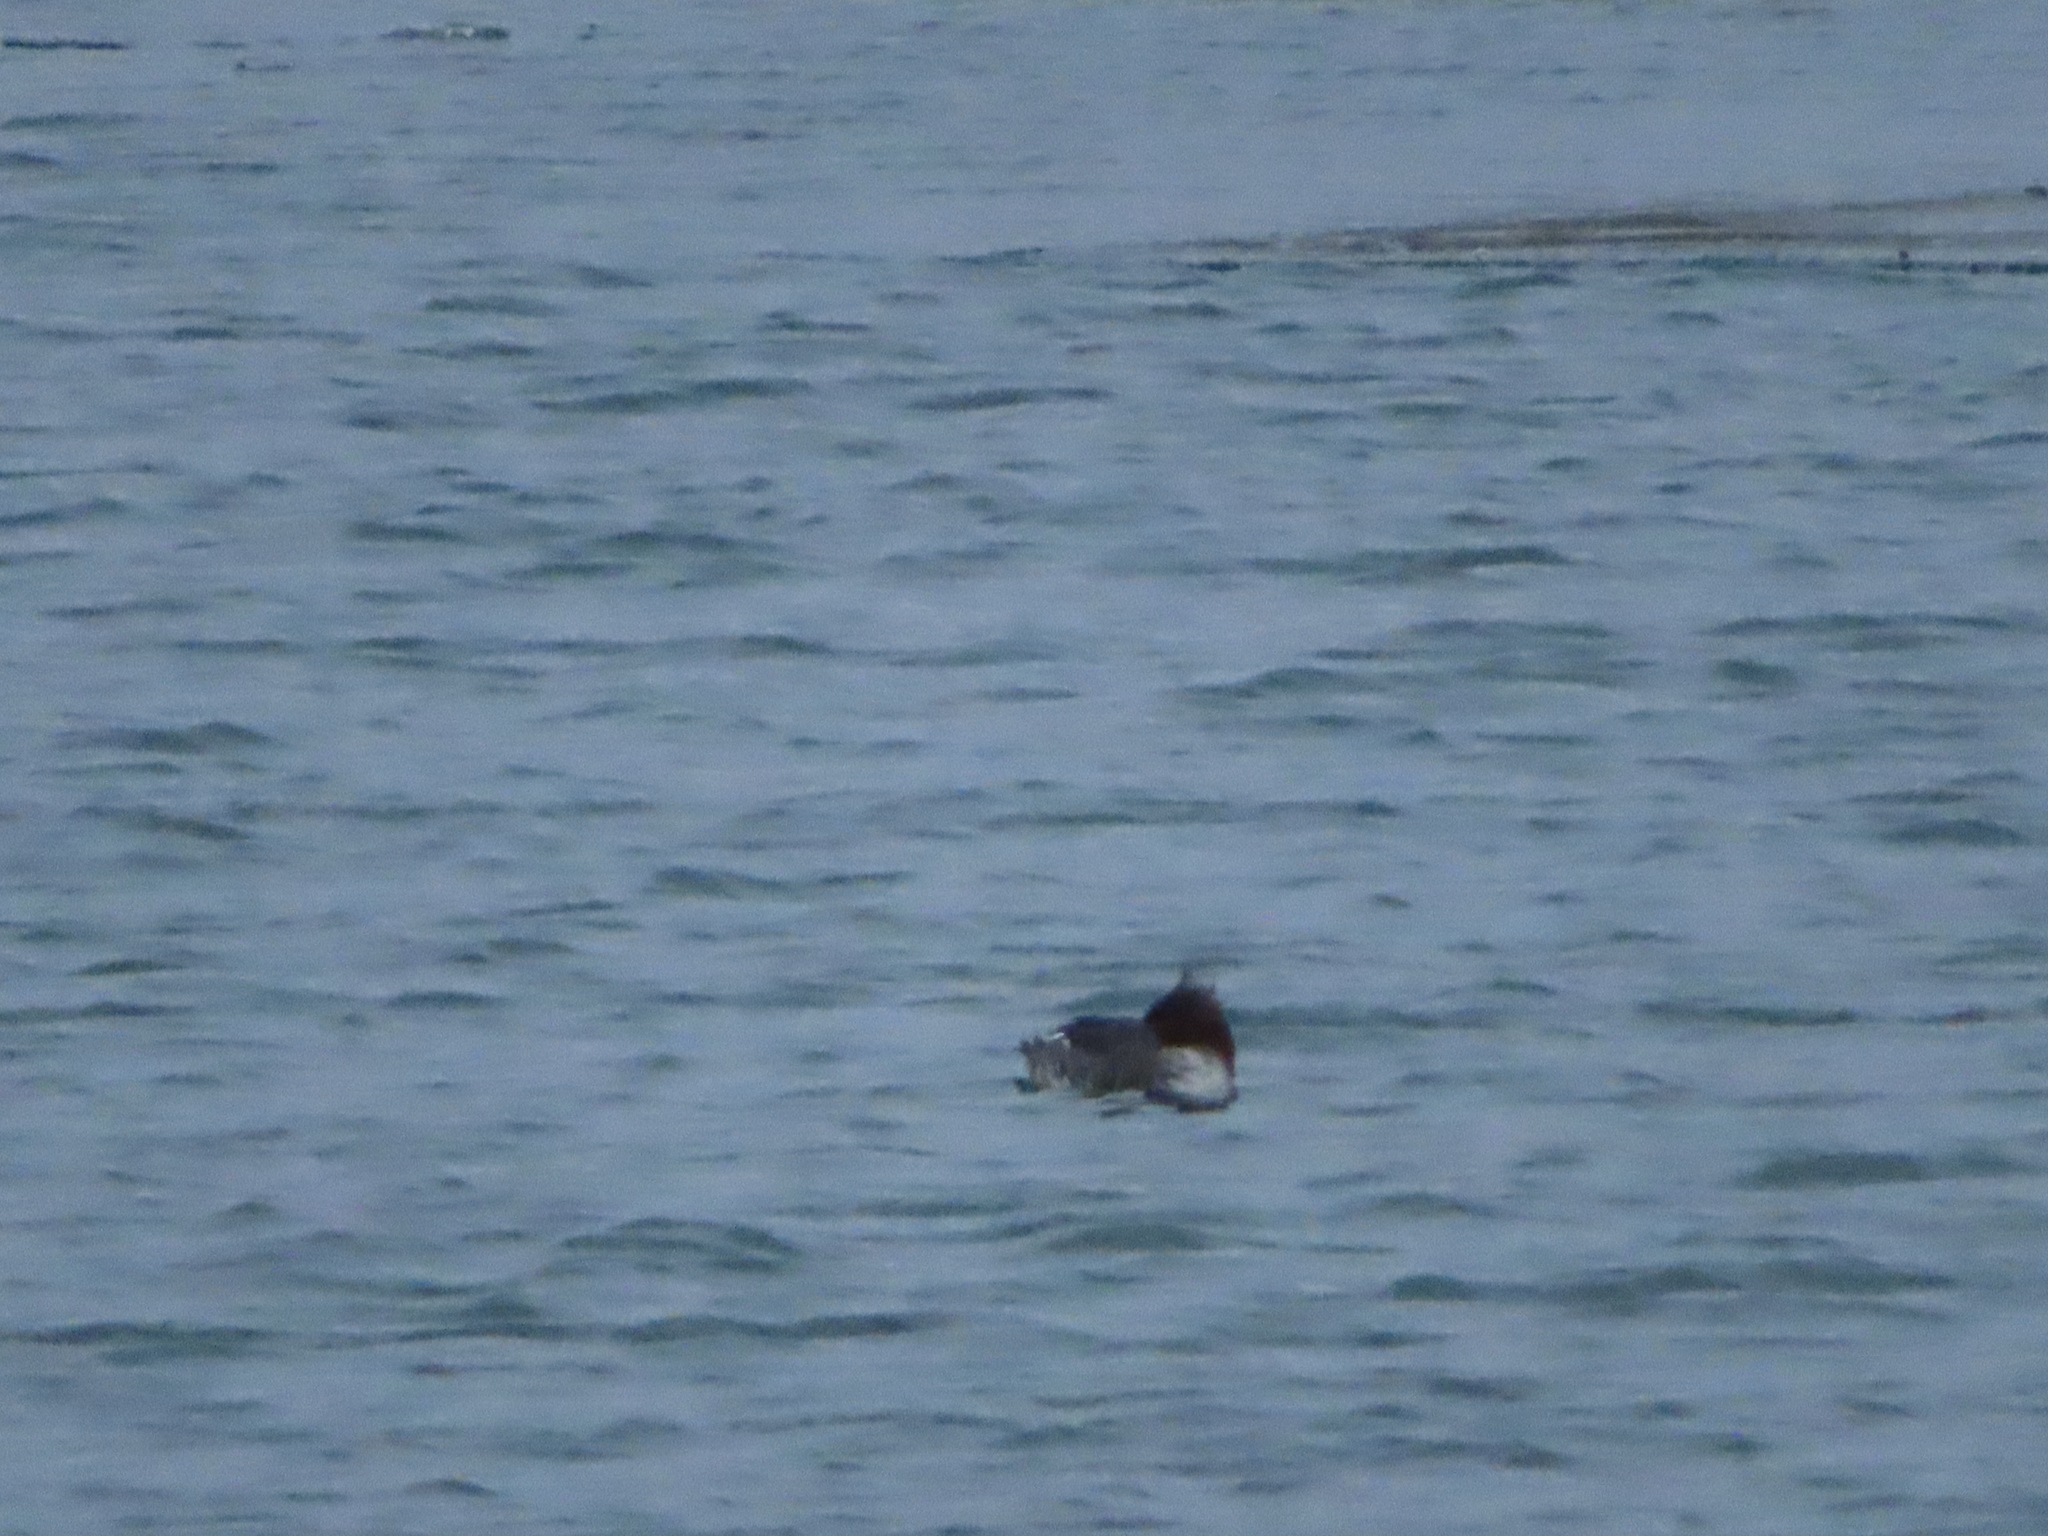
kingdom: Animalia
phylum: Chordata
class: Aves
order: Anseriformes
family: Anatidae
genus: Mergus
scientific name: Mergus serrator
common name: Red-breasted merganser
